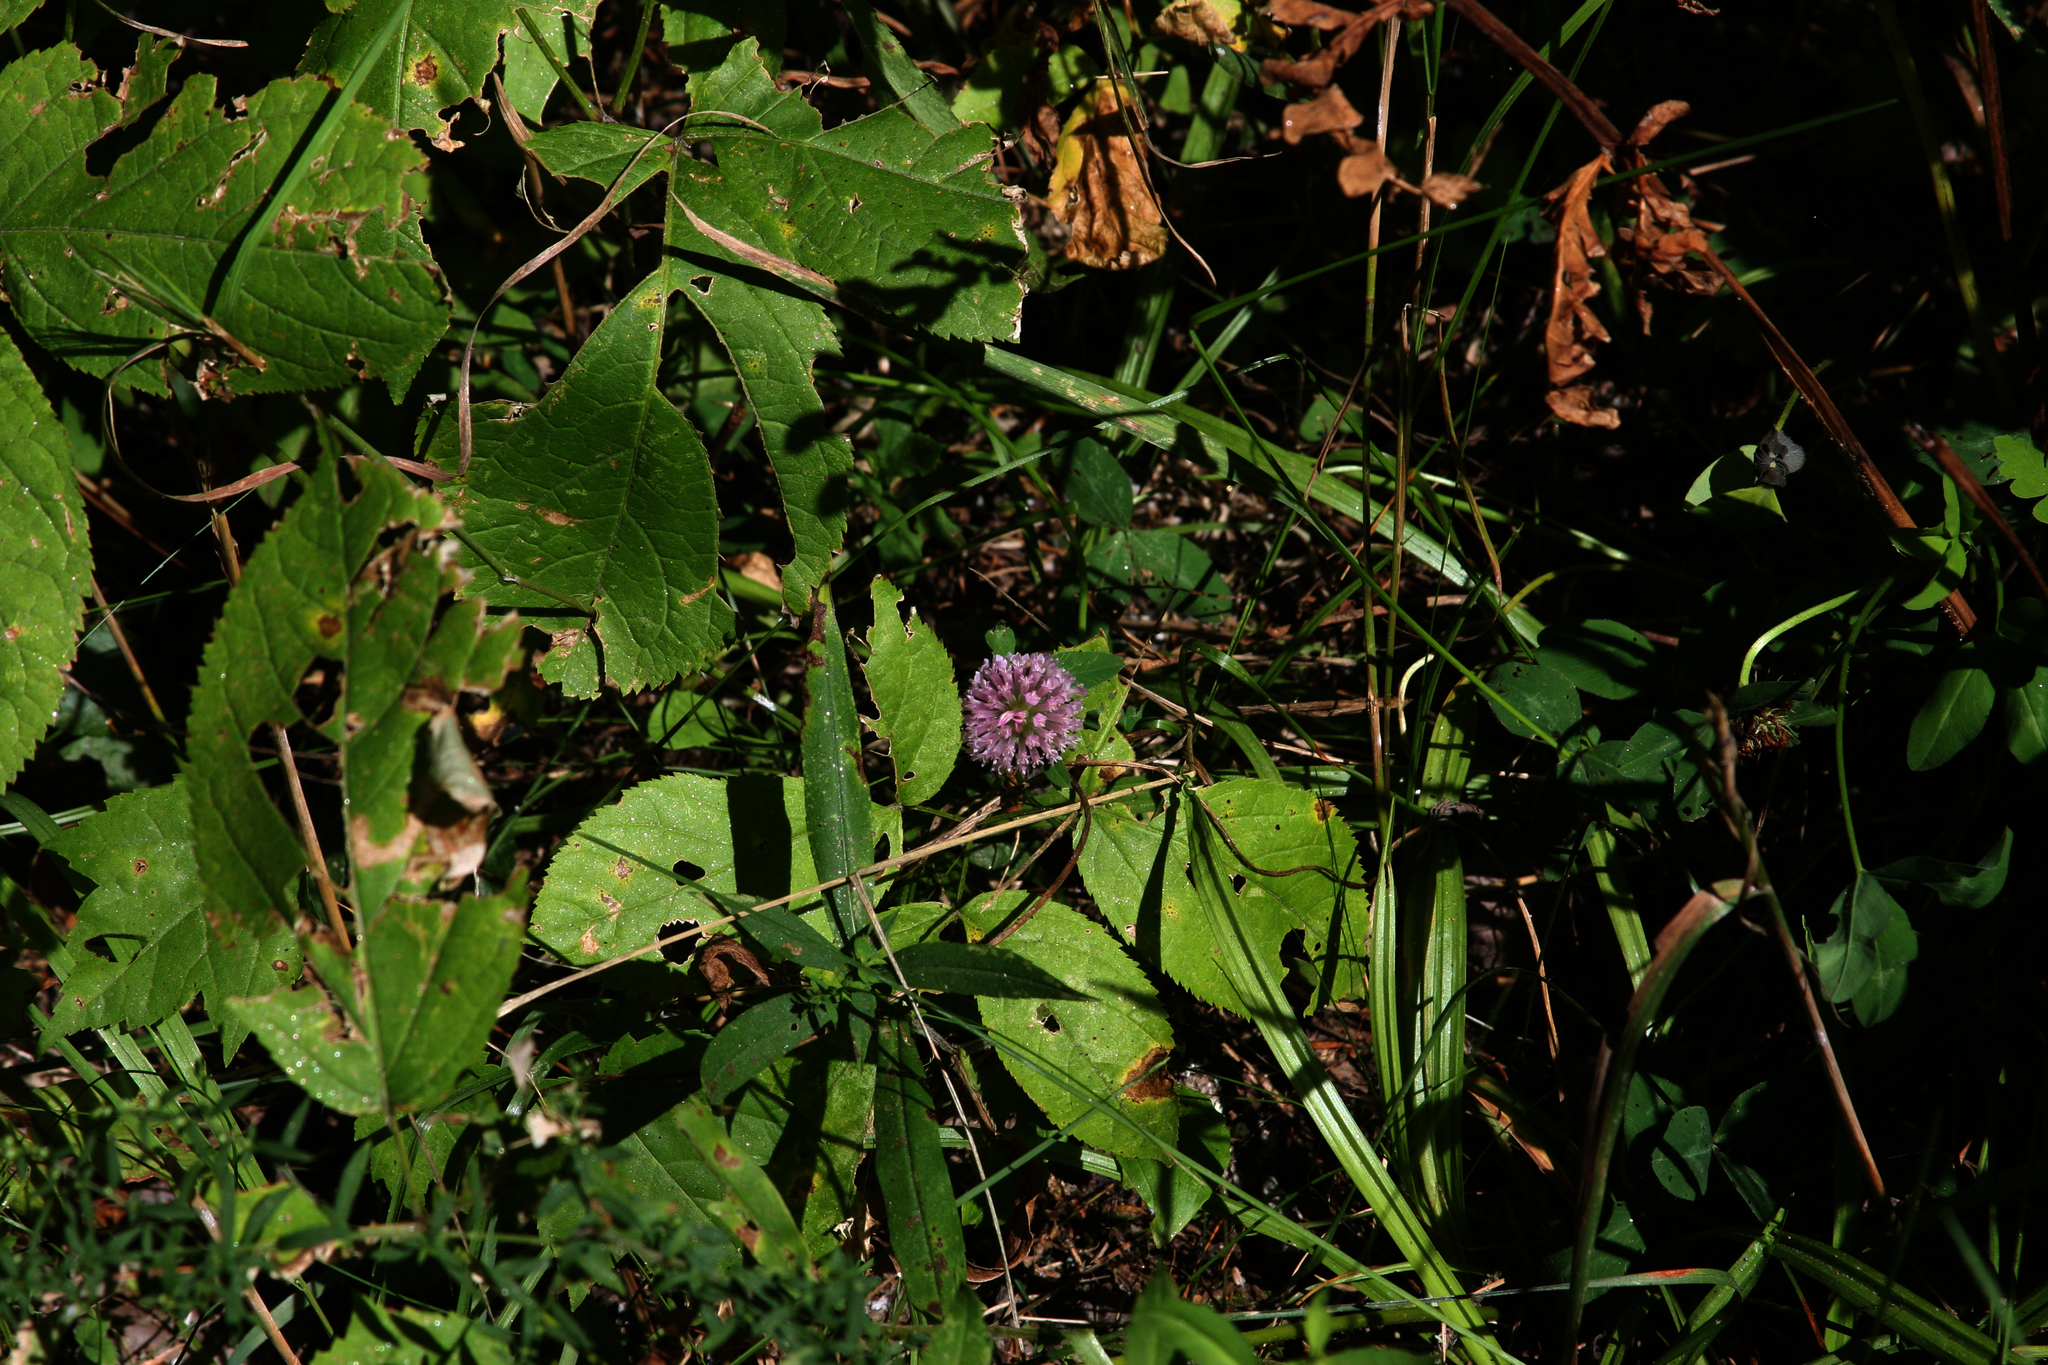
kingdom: Plantae
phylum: Tracheophyta
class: Magnoliopsida
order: Fabales
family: Fabaceae
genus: Trifolium
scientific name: Trifolium pratense
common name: Red clover
